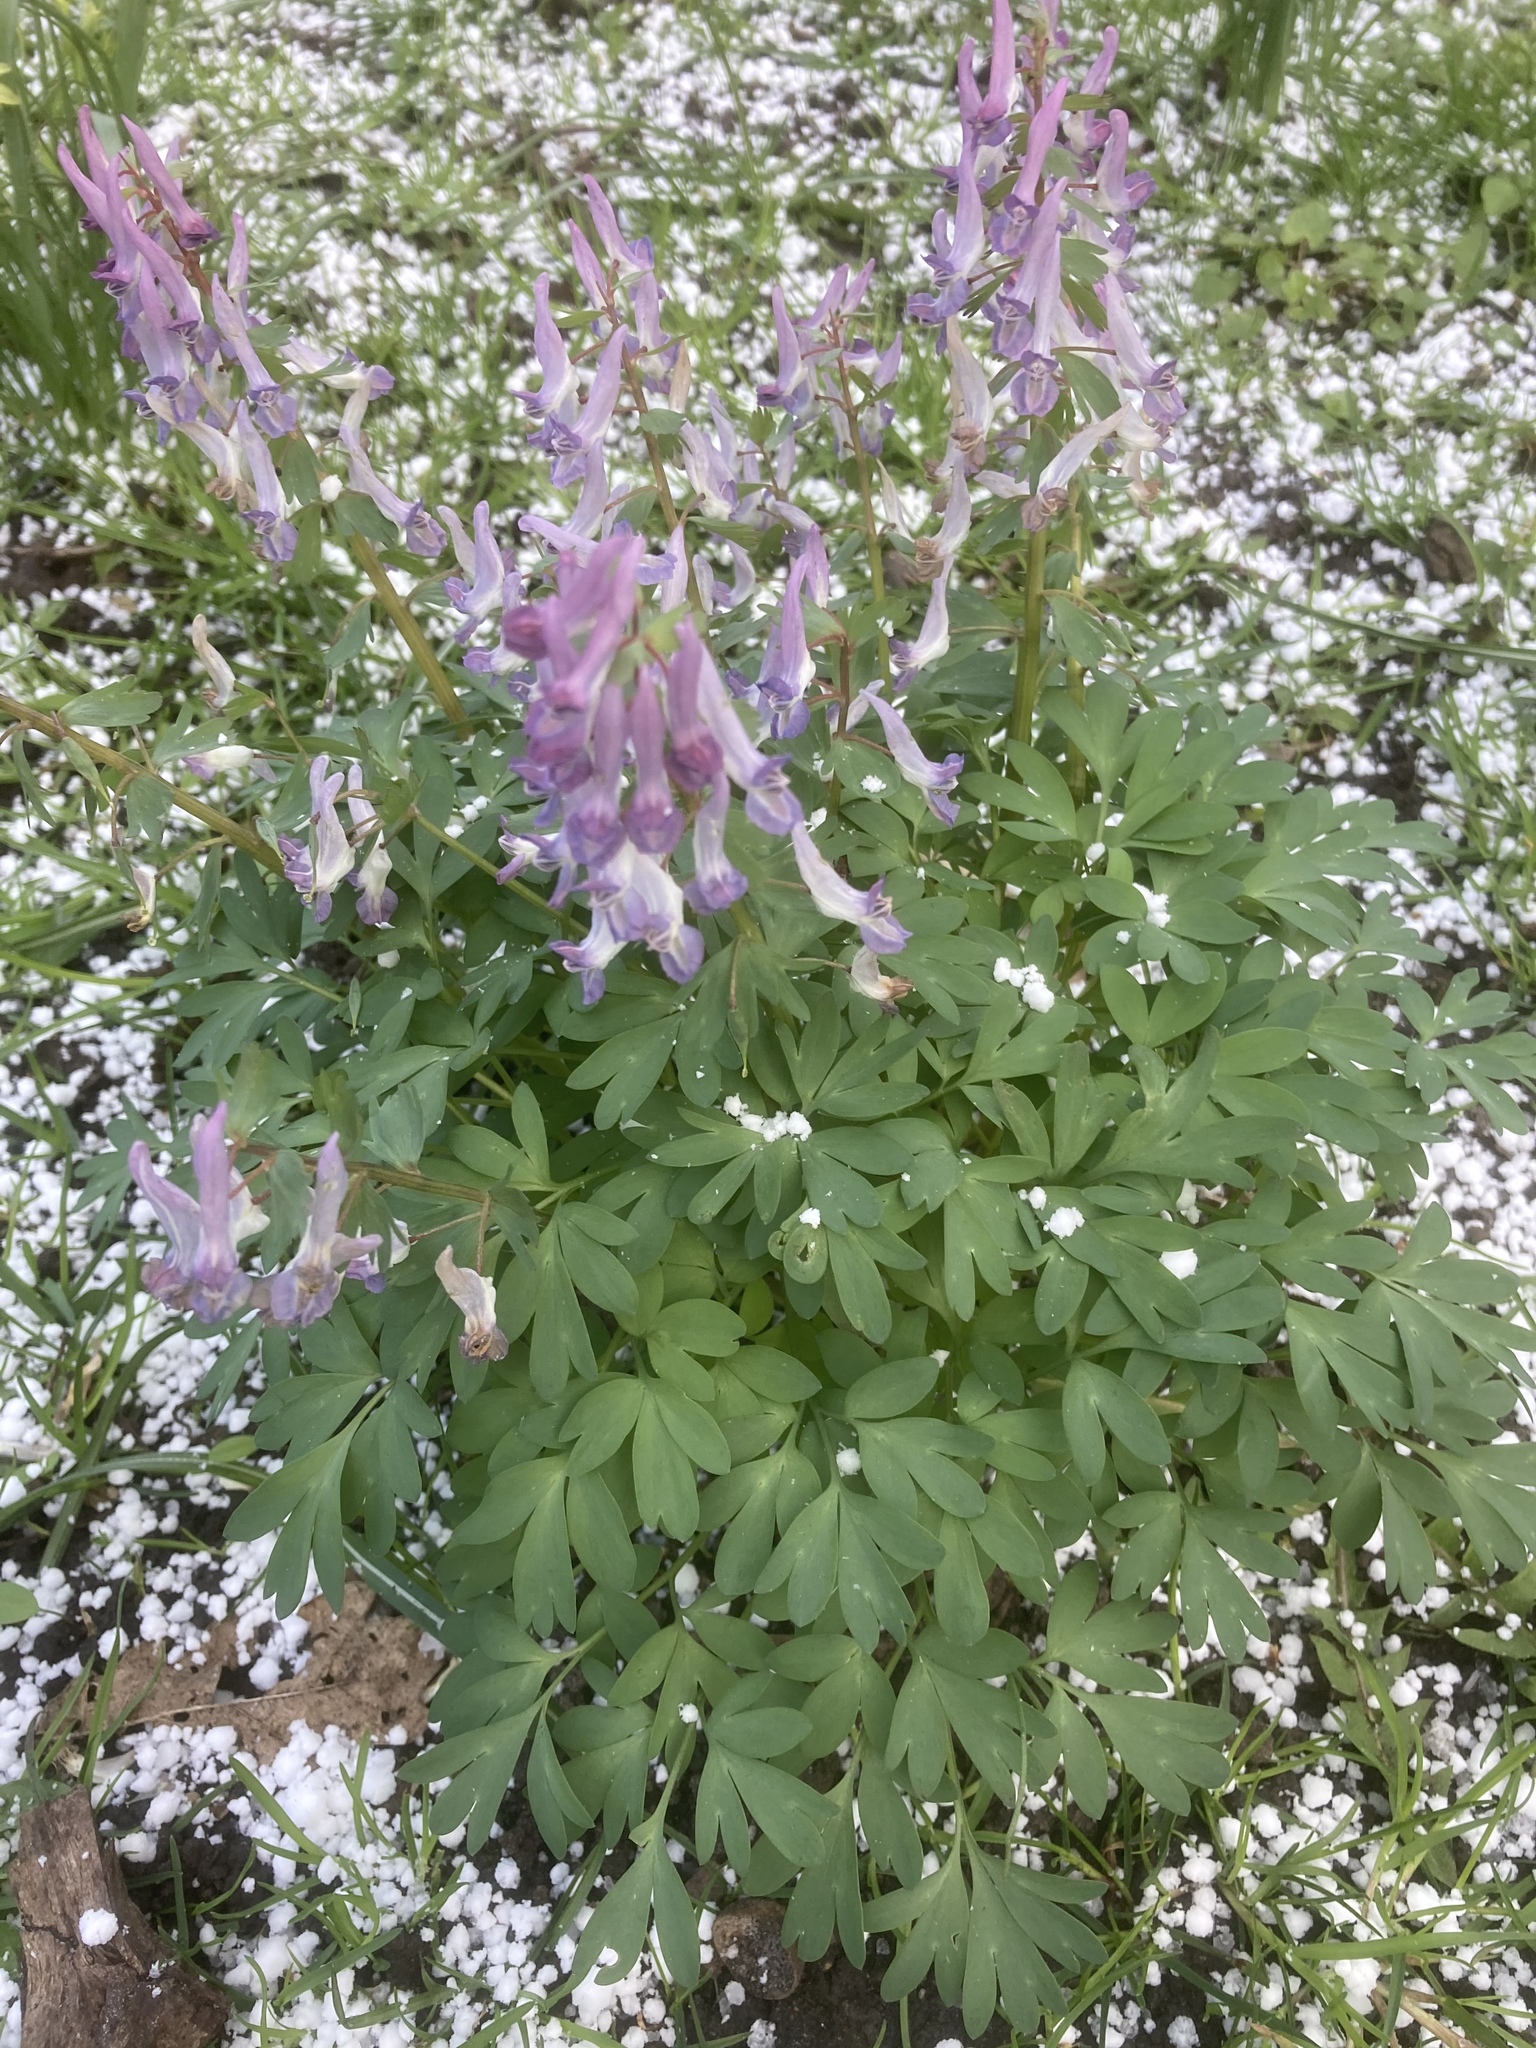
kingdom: Plantae
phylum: Tracheophyta
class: Magnoliopsida
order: Ranunculales
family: Papaveraceae
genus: Corydalis
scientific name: Corydalis solida
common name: Bird-in-a-bush
